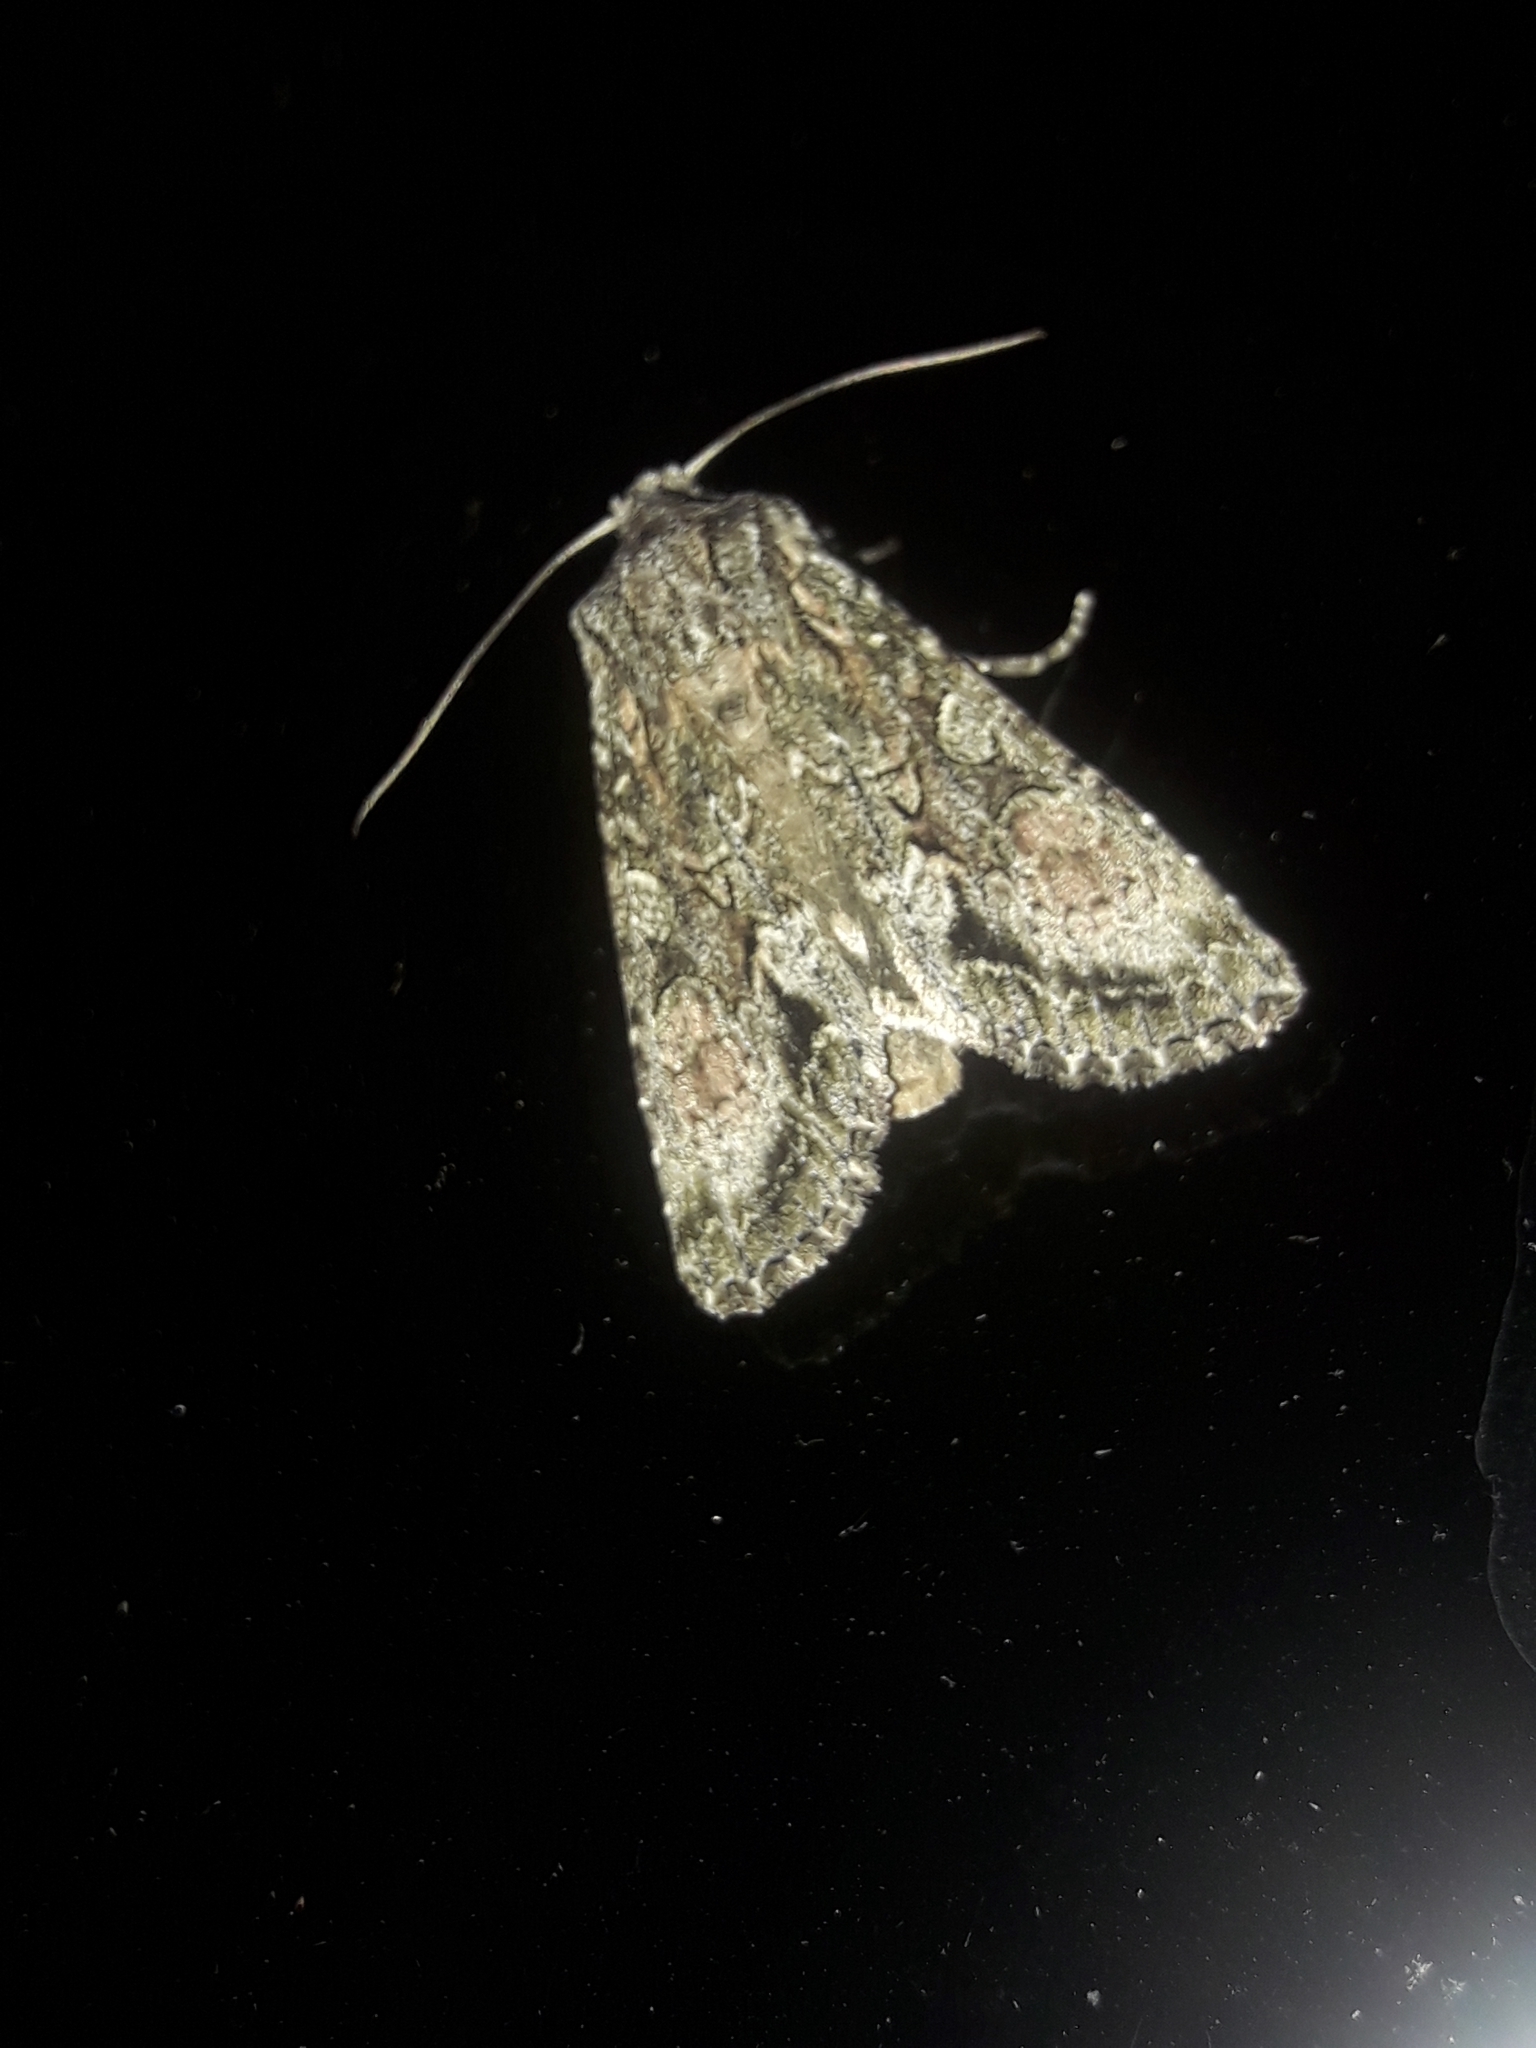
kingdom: Animalia
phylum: Arthropoda
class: Insecta
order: Lepidoptera
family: Noctuidae
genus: Ichneutica
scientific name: Ichneutica mutans
